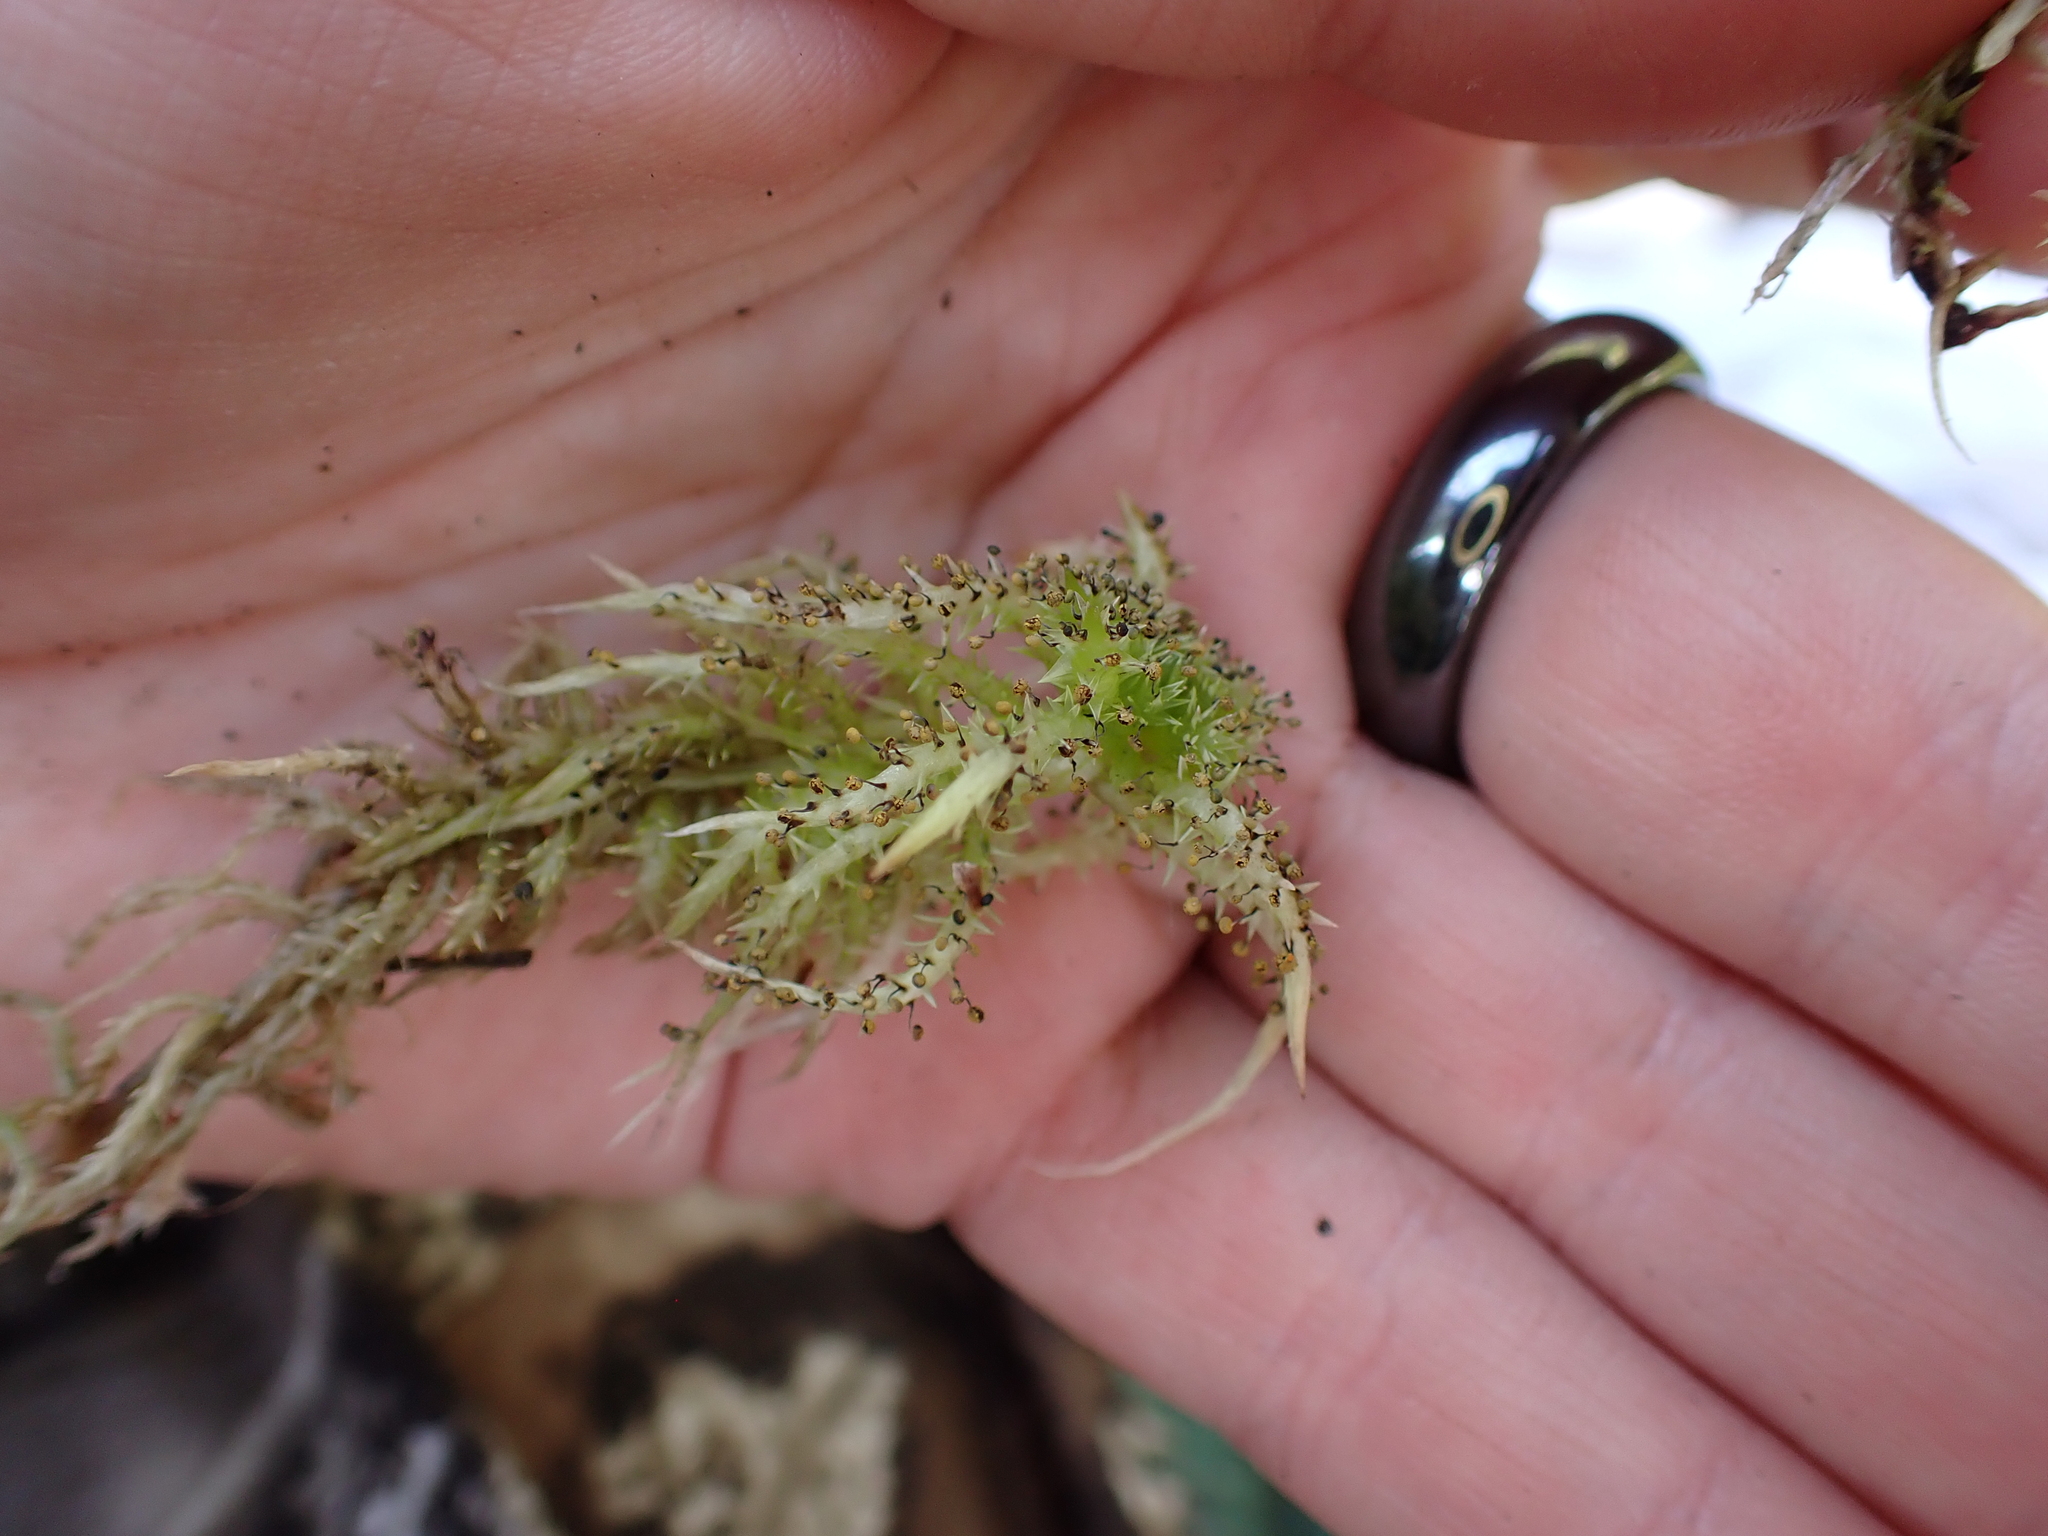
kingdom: Protozoa
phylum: Mycetozoa
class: Myxomycetes
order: Physarales
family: Physaraceae
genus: Physarum
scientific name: Physarum viride
